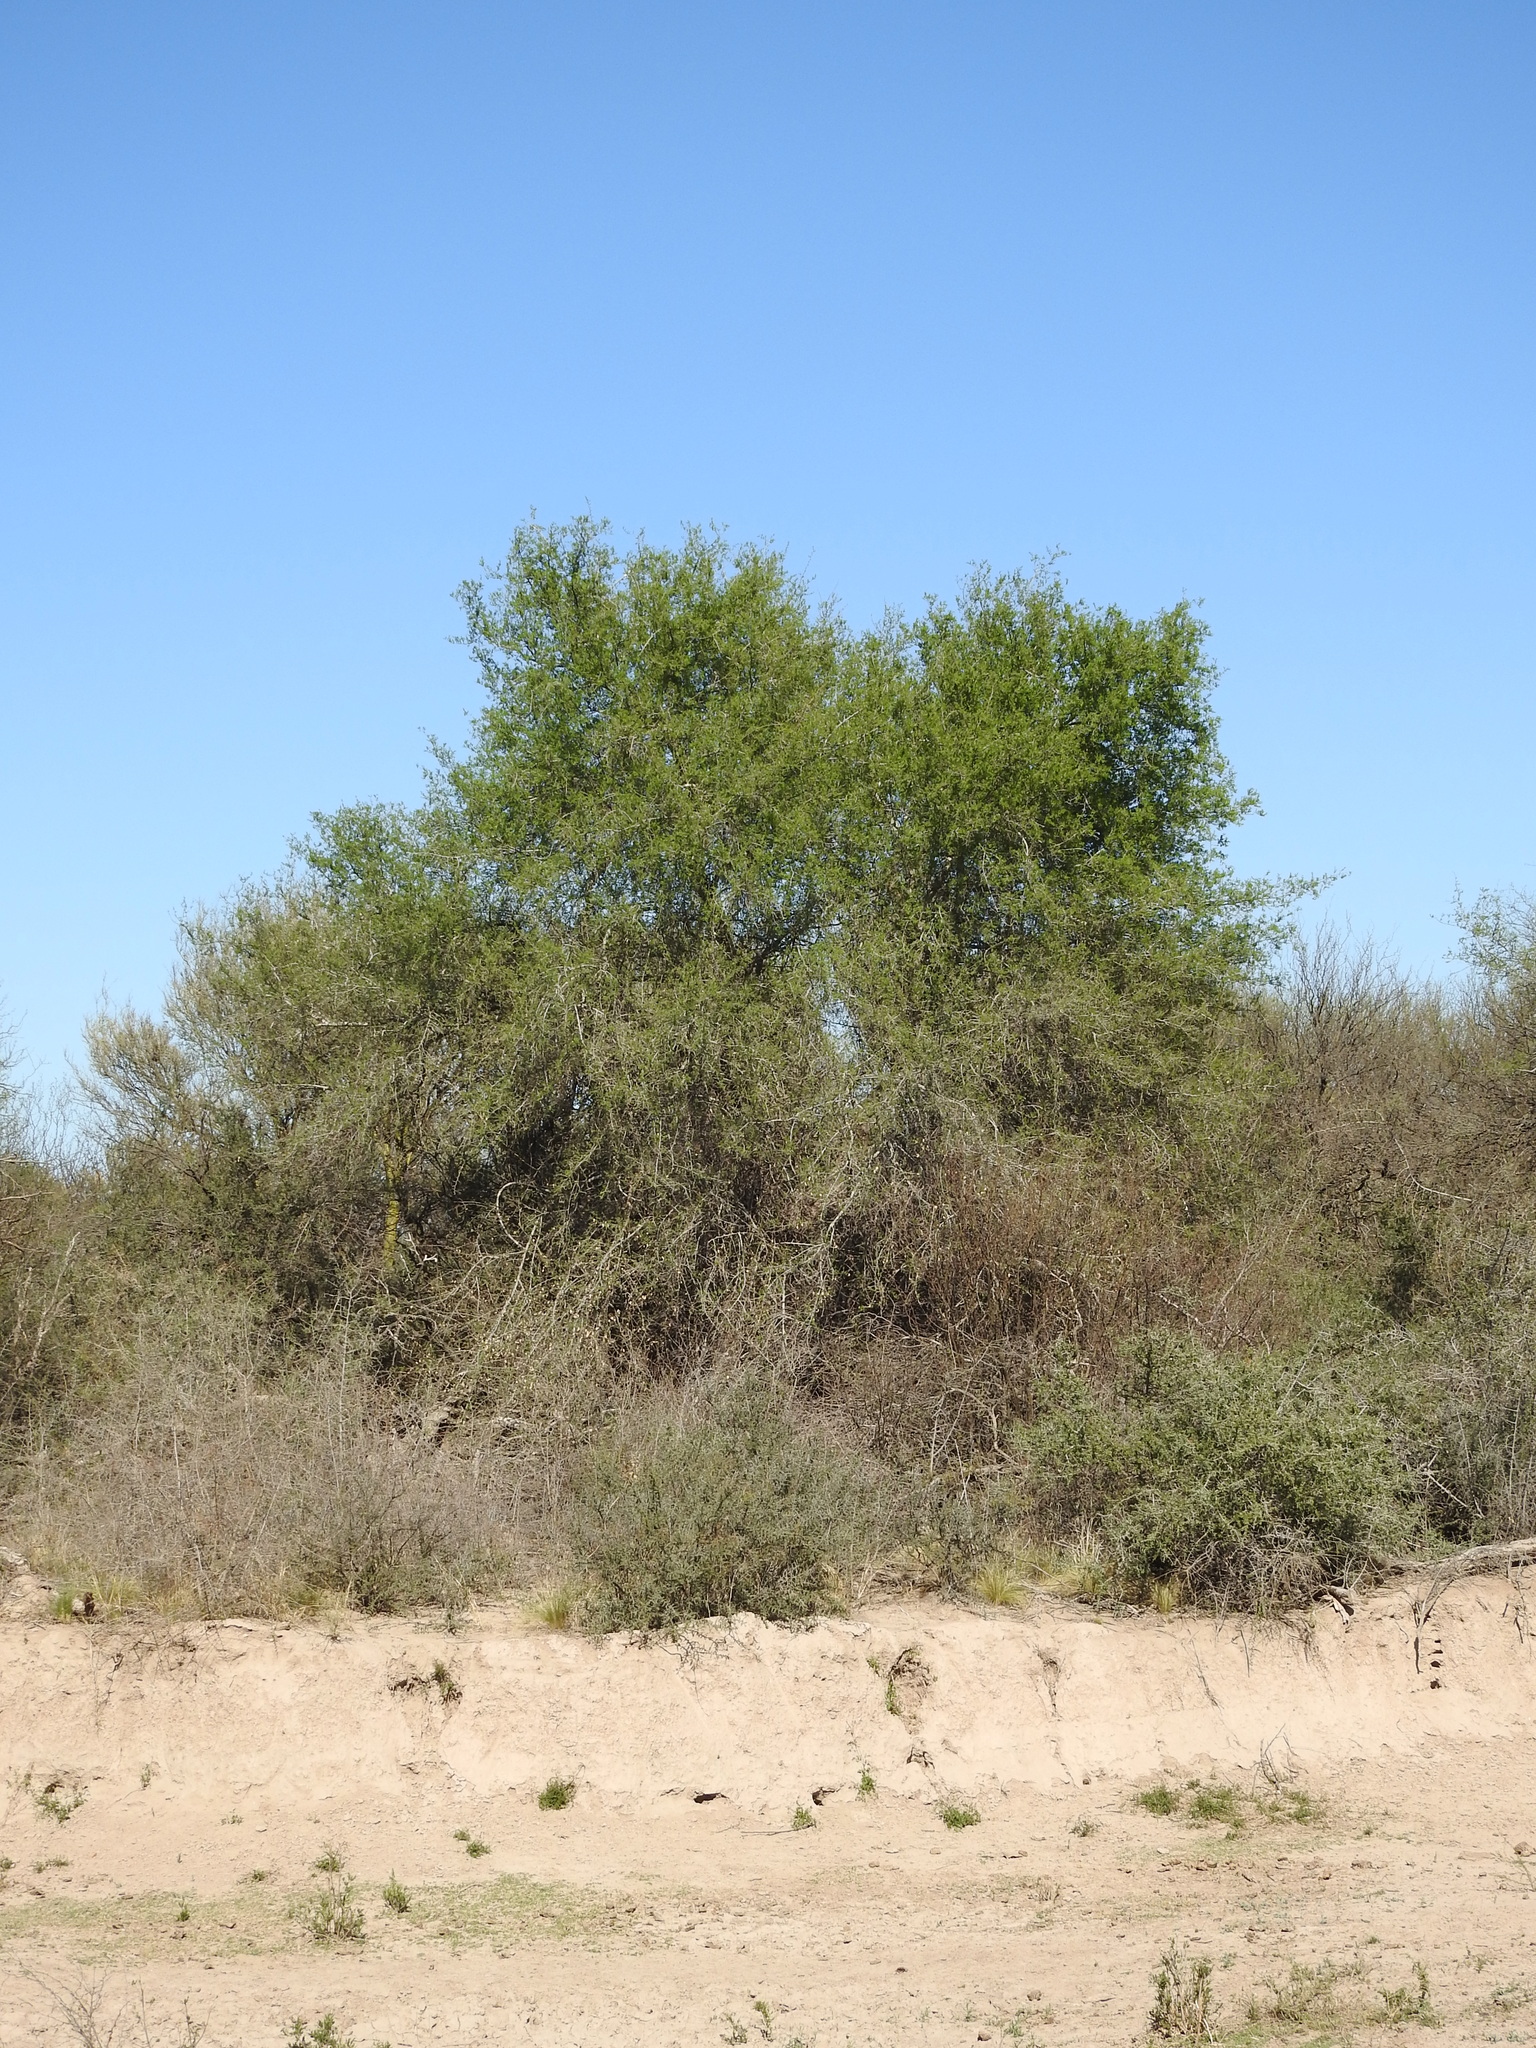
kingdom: Plantae
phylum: Tracheophyta
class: Magnoliopsida
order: Rosales
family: Cannabaceae
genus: Celtis
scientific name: Celtis tala
